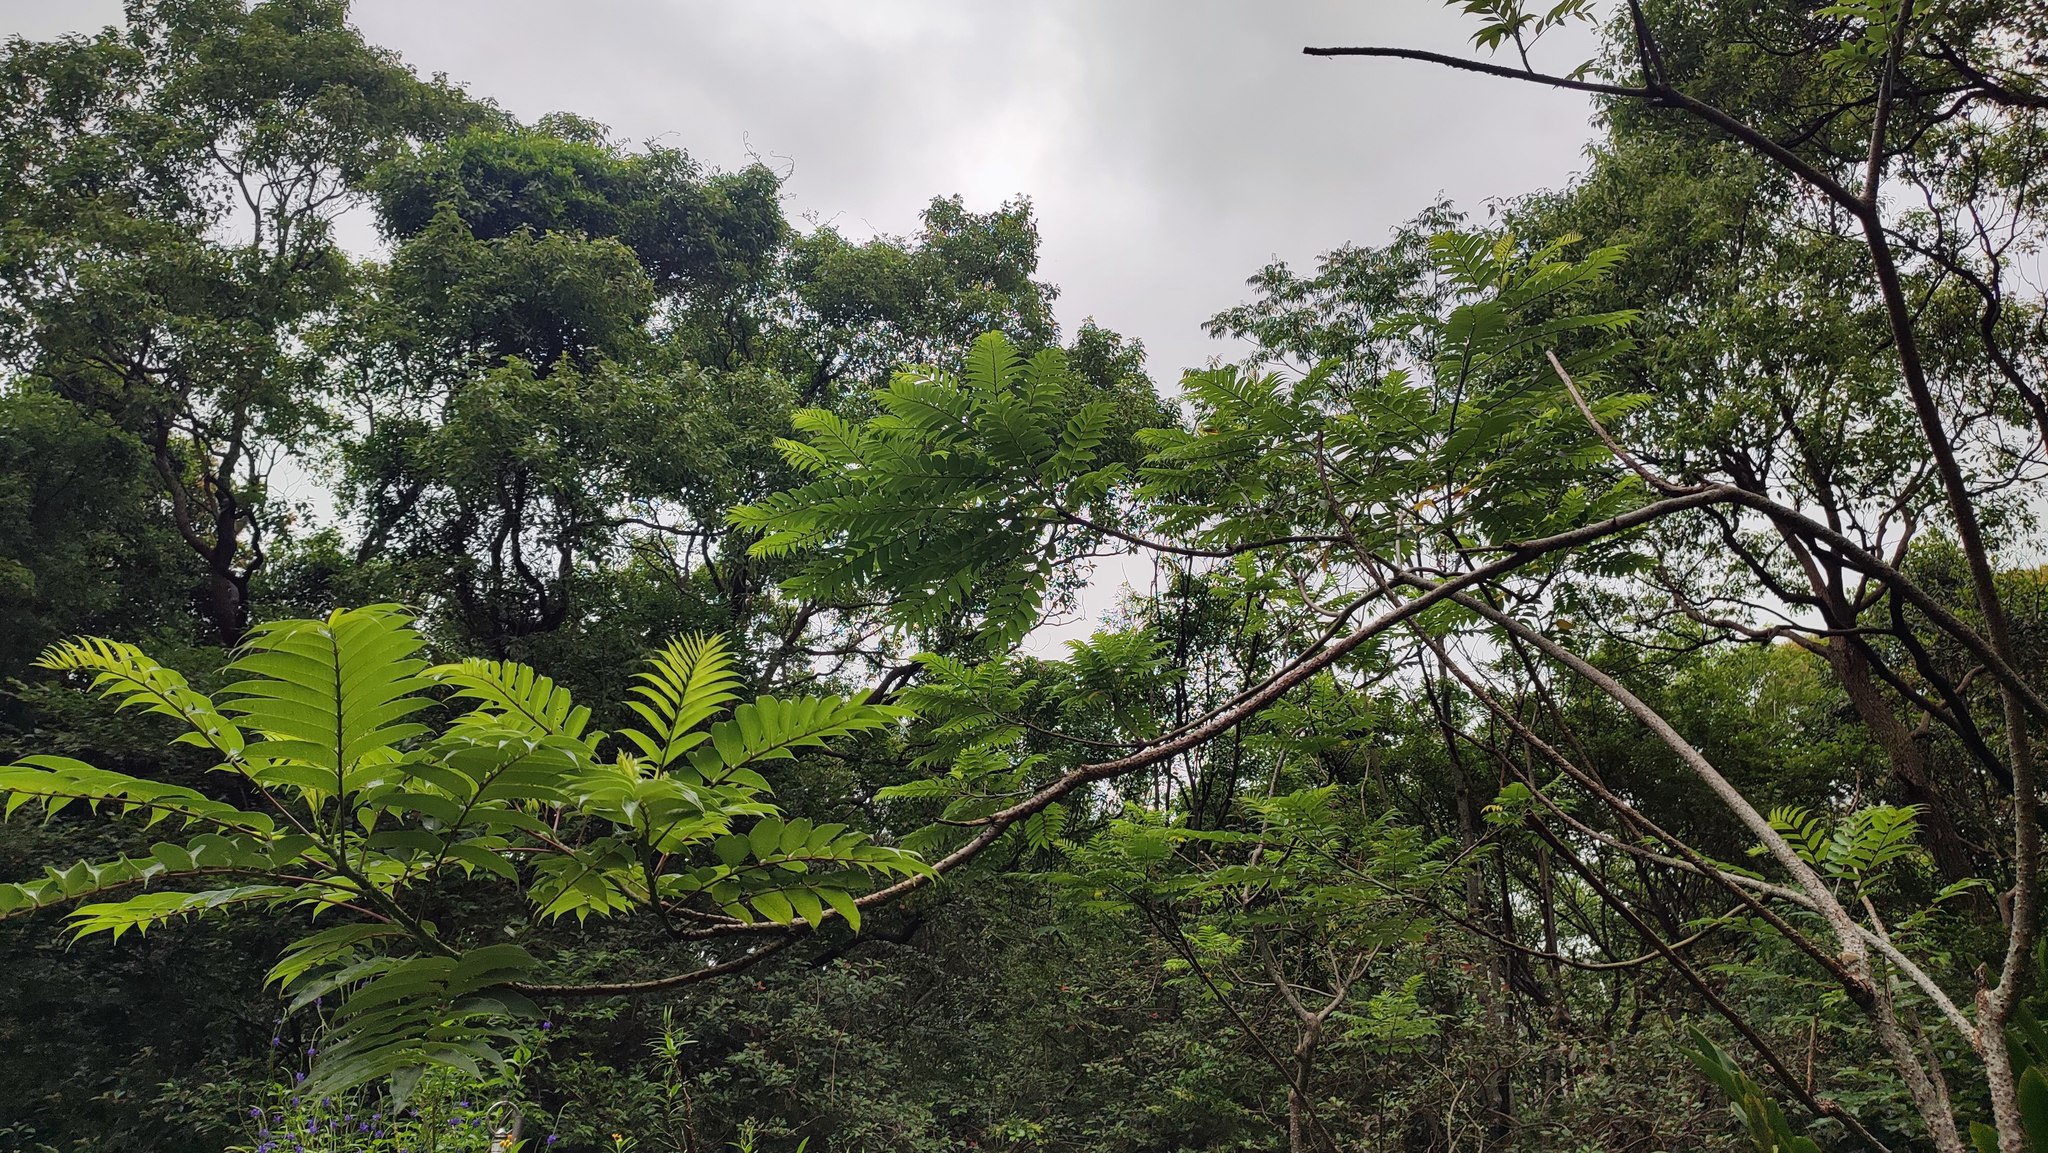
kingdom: Plantae
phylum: Tracheophyta
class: Magnoliopsida
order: Sapindales
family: Rutaceae
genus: Zanthoxylum
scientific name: Zanthoxylum ailanthoides
